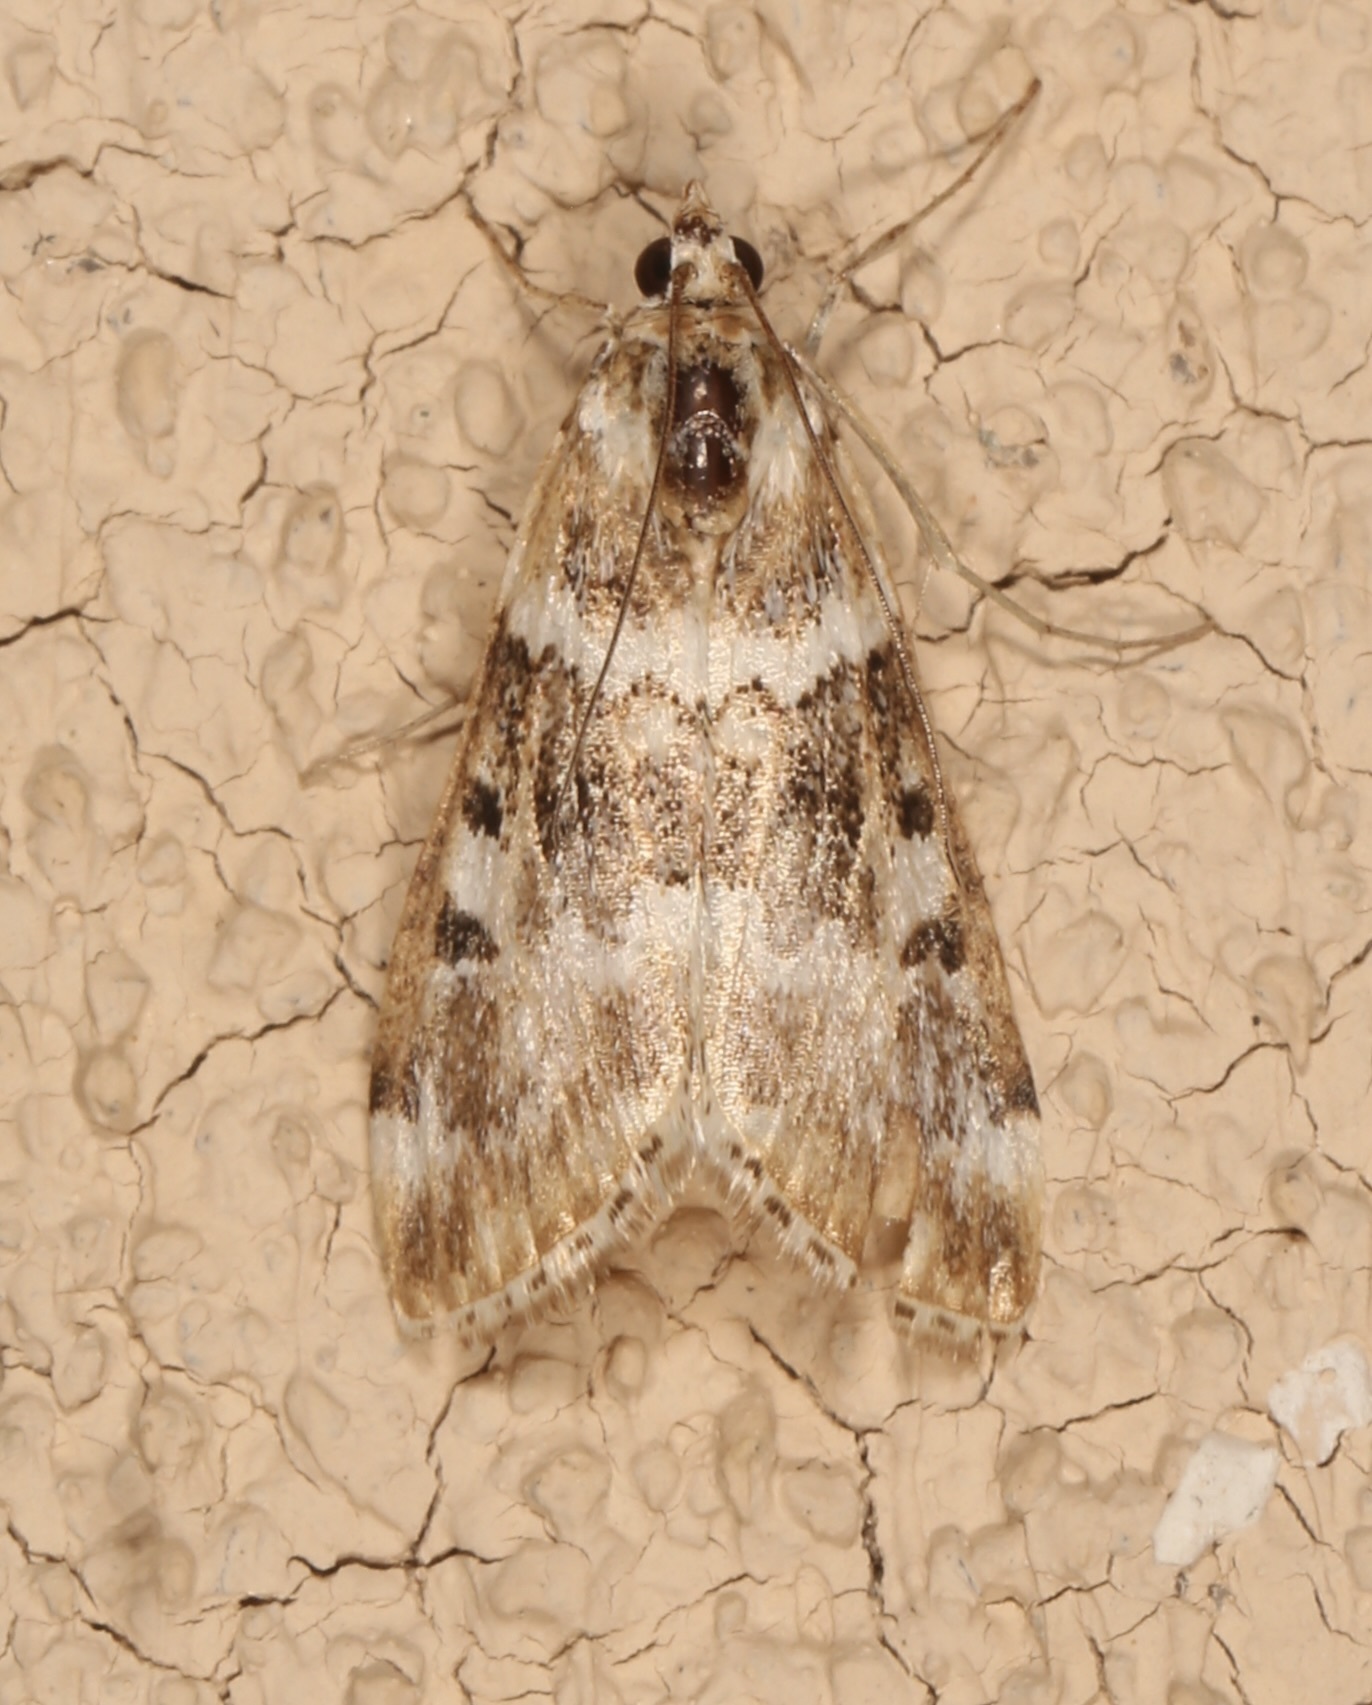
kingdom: Animalia
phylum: Arthropoda
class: Insecta
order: Lepidoptera
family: Crambidae
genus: Loxostege
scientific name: Loxostege kearfottalis
